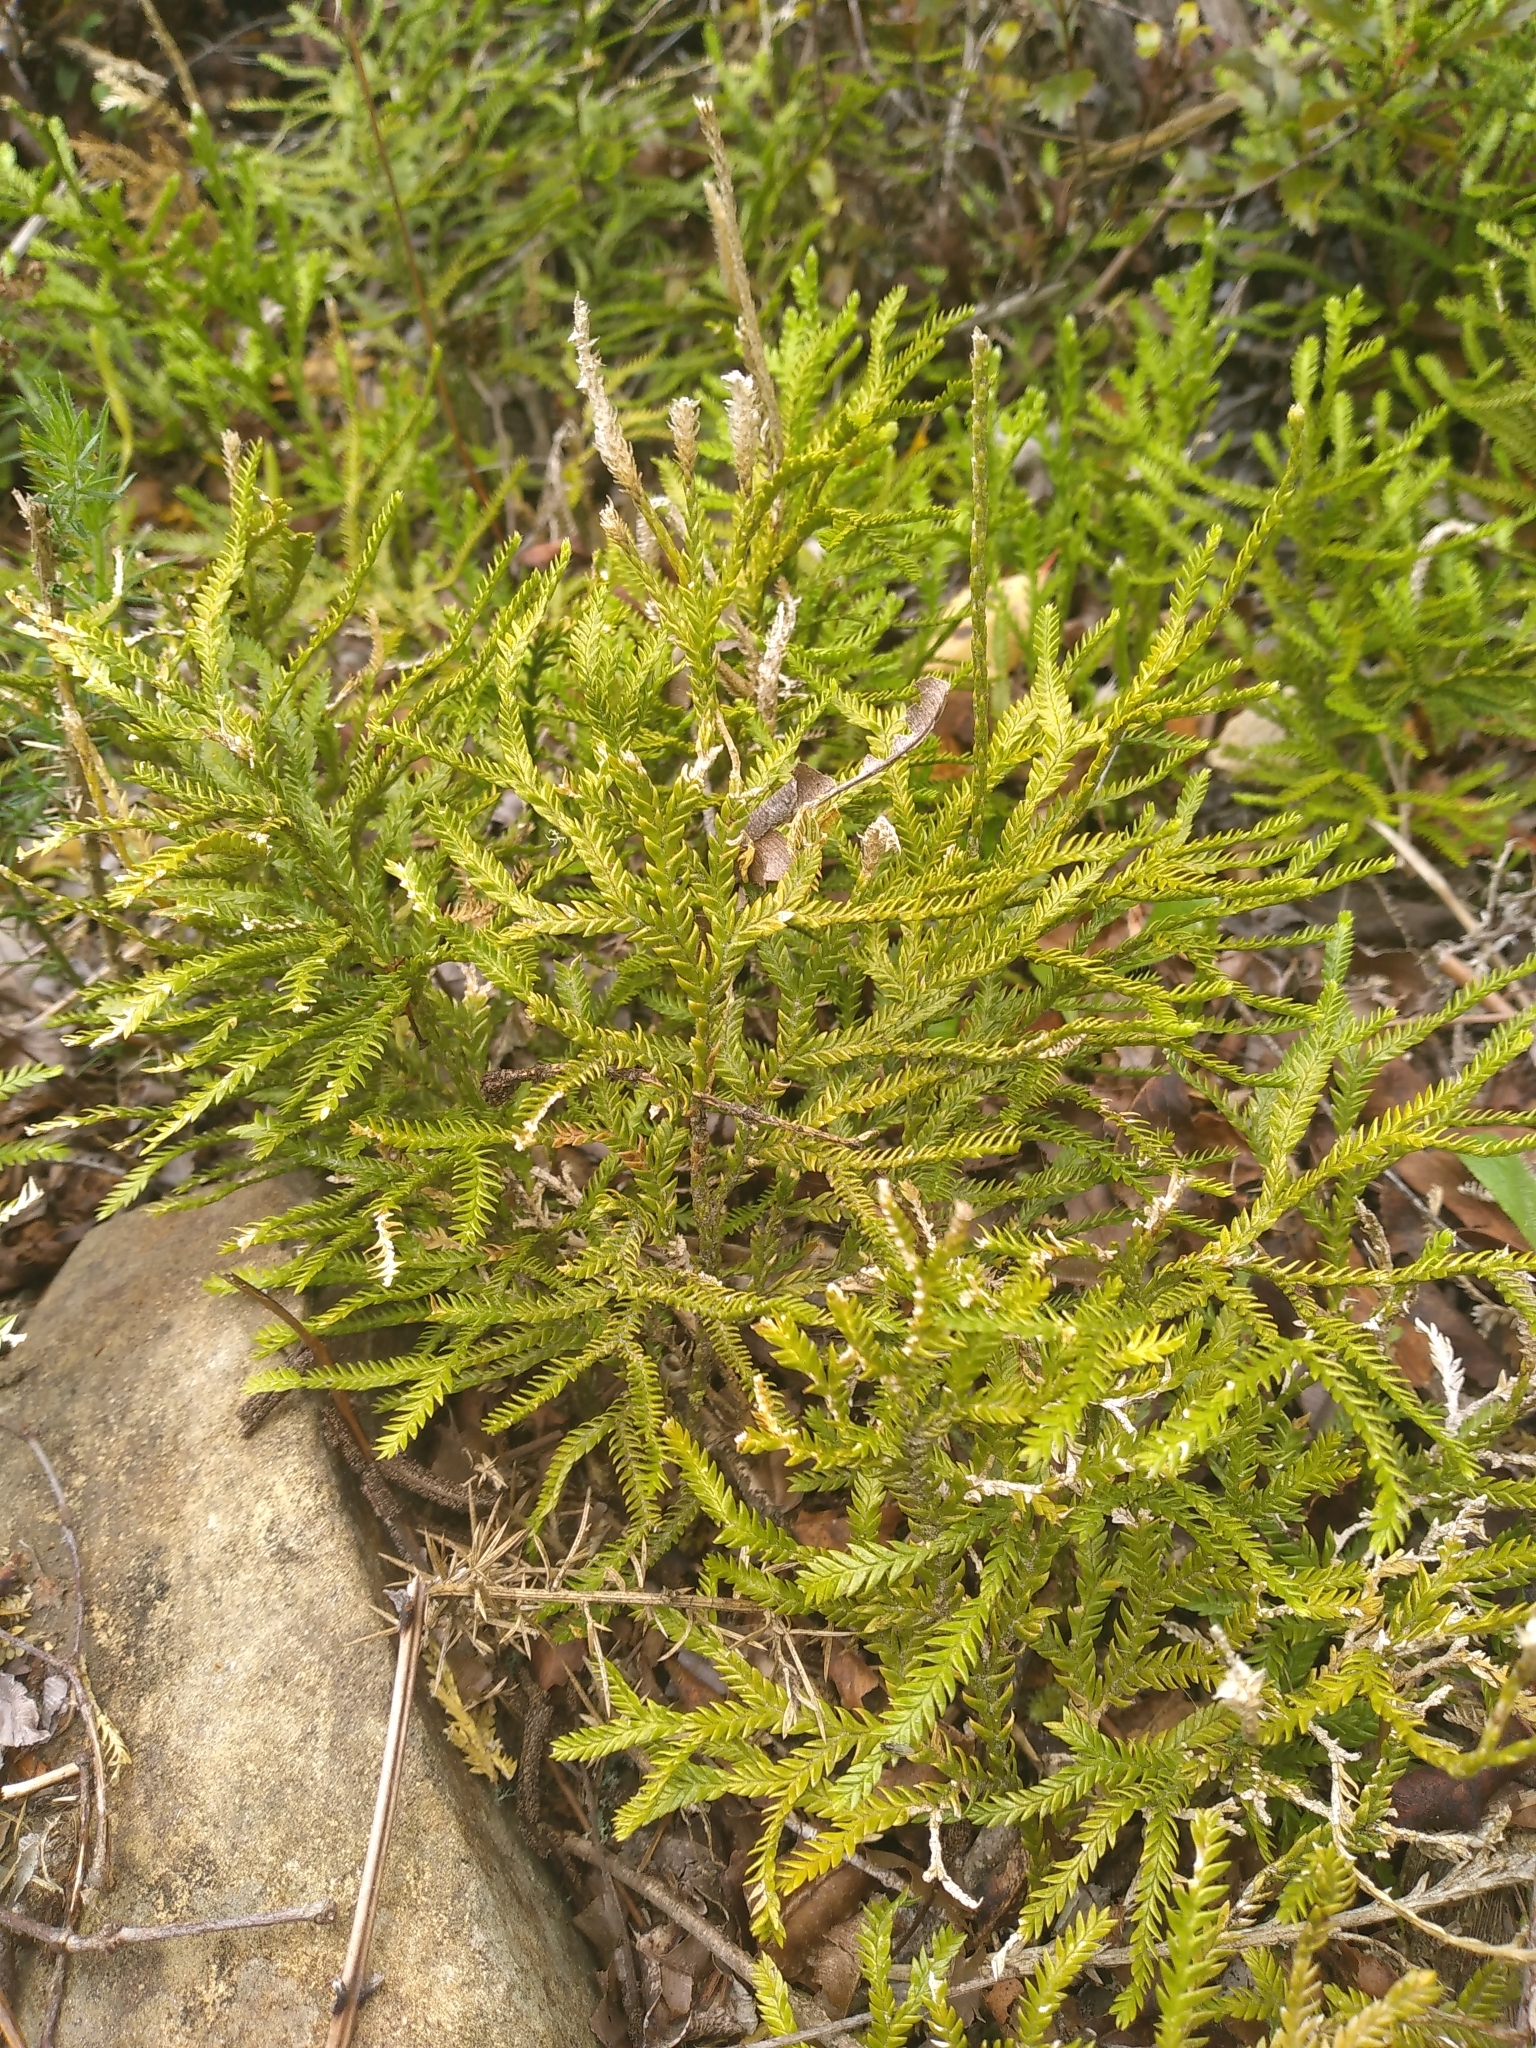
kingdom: Plantae
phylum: Tracheophyta
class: Lycopodiopsida
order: Lycopodiales
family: Lycopodiaceae
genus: Diphasium
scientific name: Diphasium scariosum
